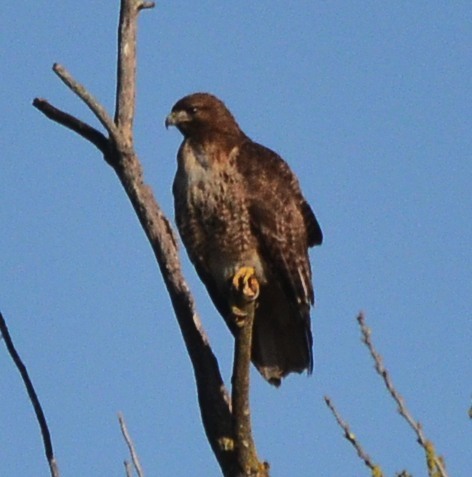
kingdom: Animalia
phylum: Chordata
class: Aves
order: Accipitriformes
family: Accipitridae
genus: Buteo
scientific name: Buteo jamaicensis
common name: Red-tailed hawk
